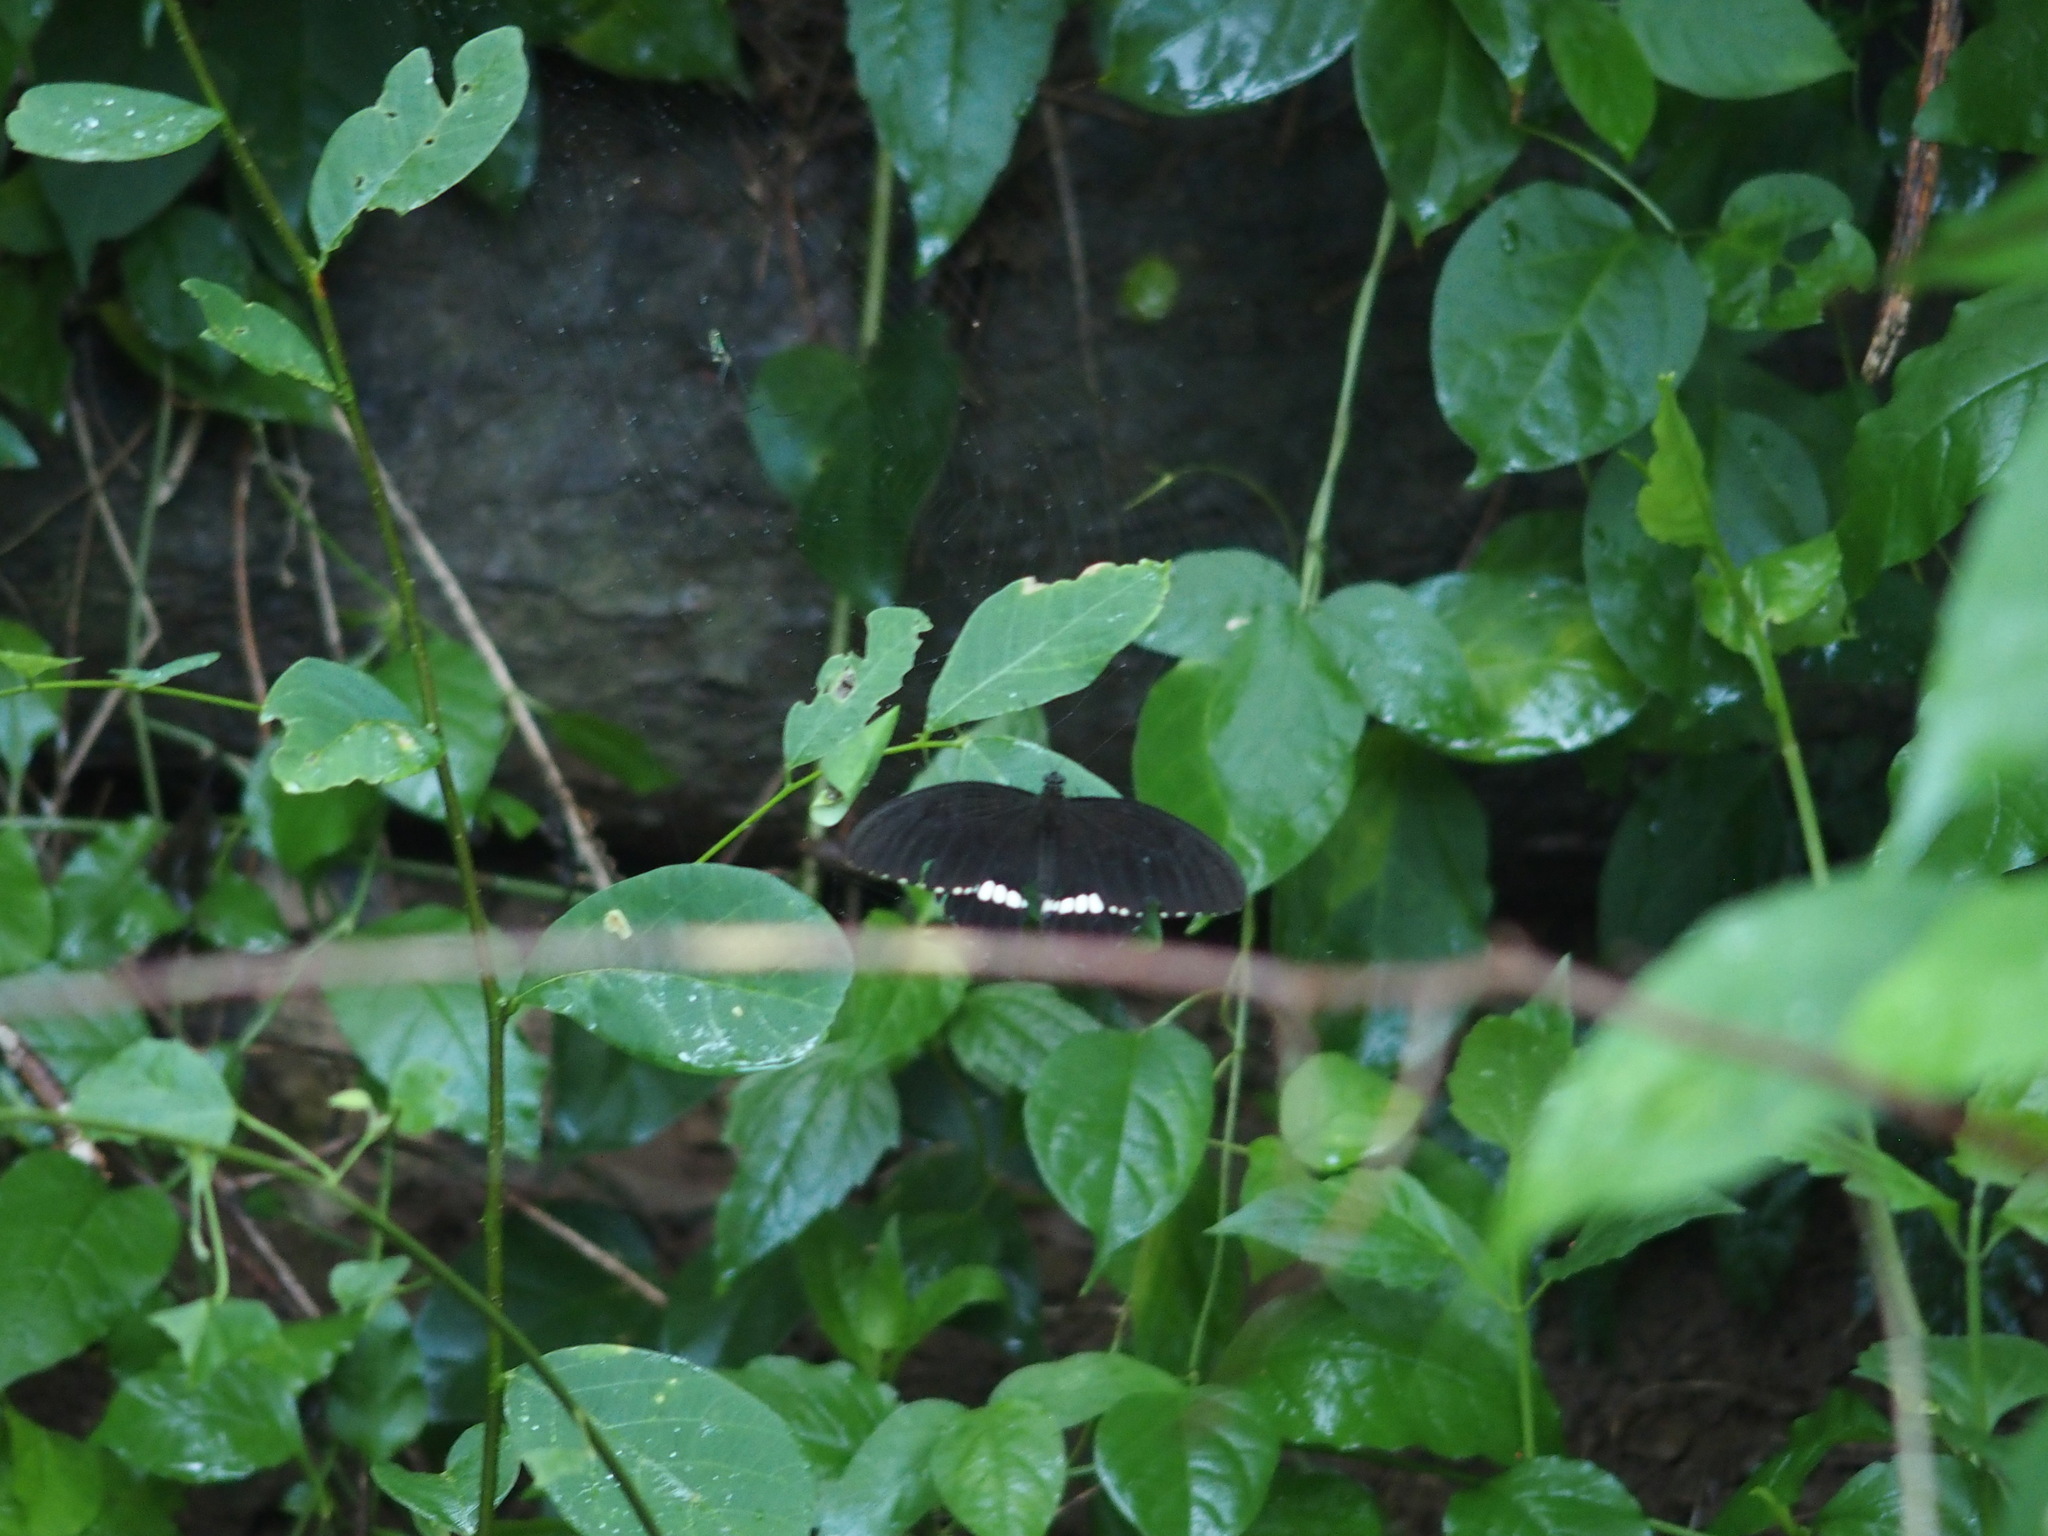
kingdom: Animalia
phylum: Arthropoda
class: Insecta
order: Lepidoptera
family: Papilionidae
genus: Papilio
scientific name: Papilio polytes
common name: Common mormon
